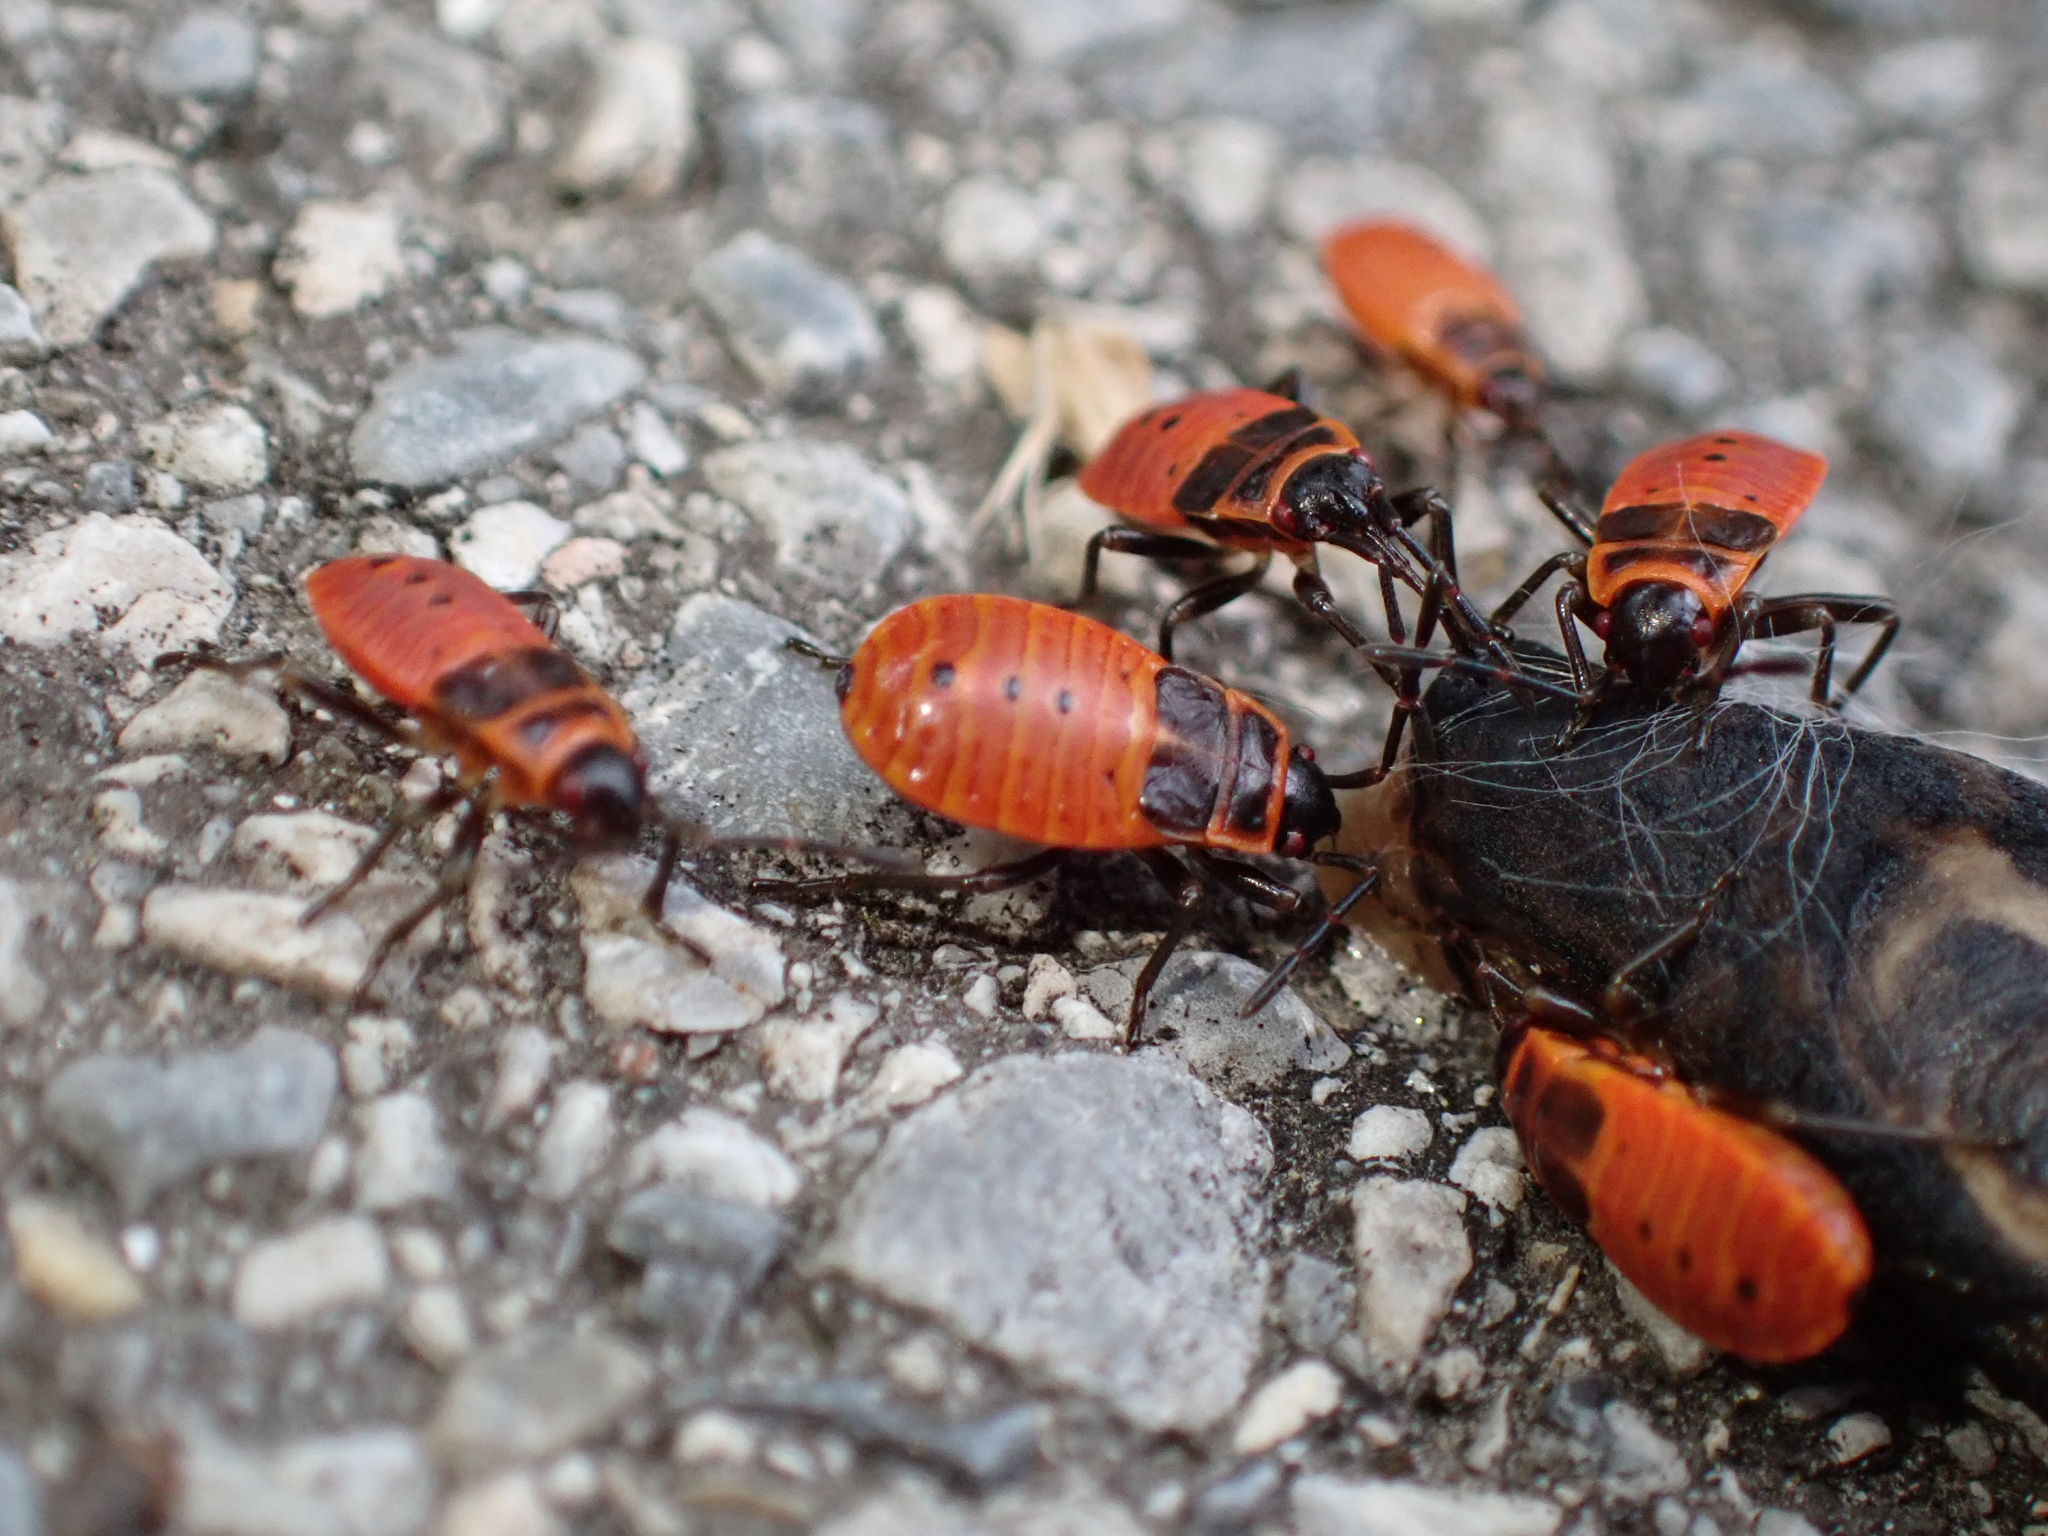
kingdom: Animalia
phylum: Arthropoda
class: Insecta
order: Hemiptera
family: Pyrrhocoridae
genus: Pyrrhocoris
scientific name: Pyrrhocoris apterus
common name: Firebug
